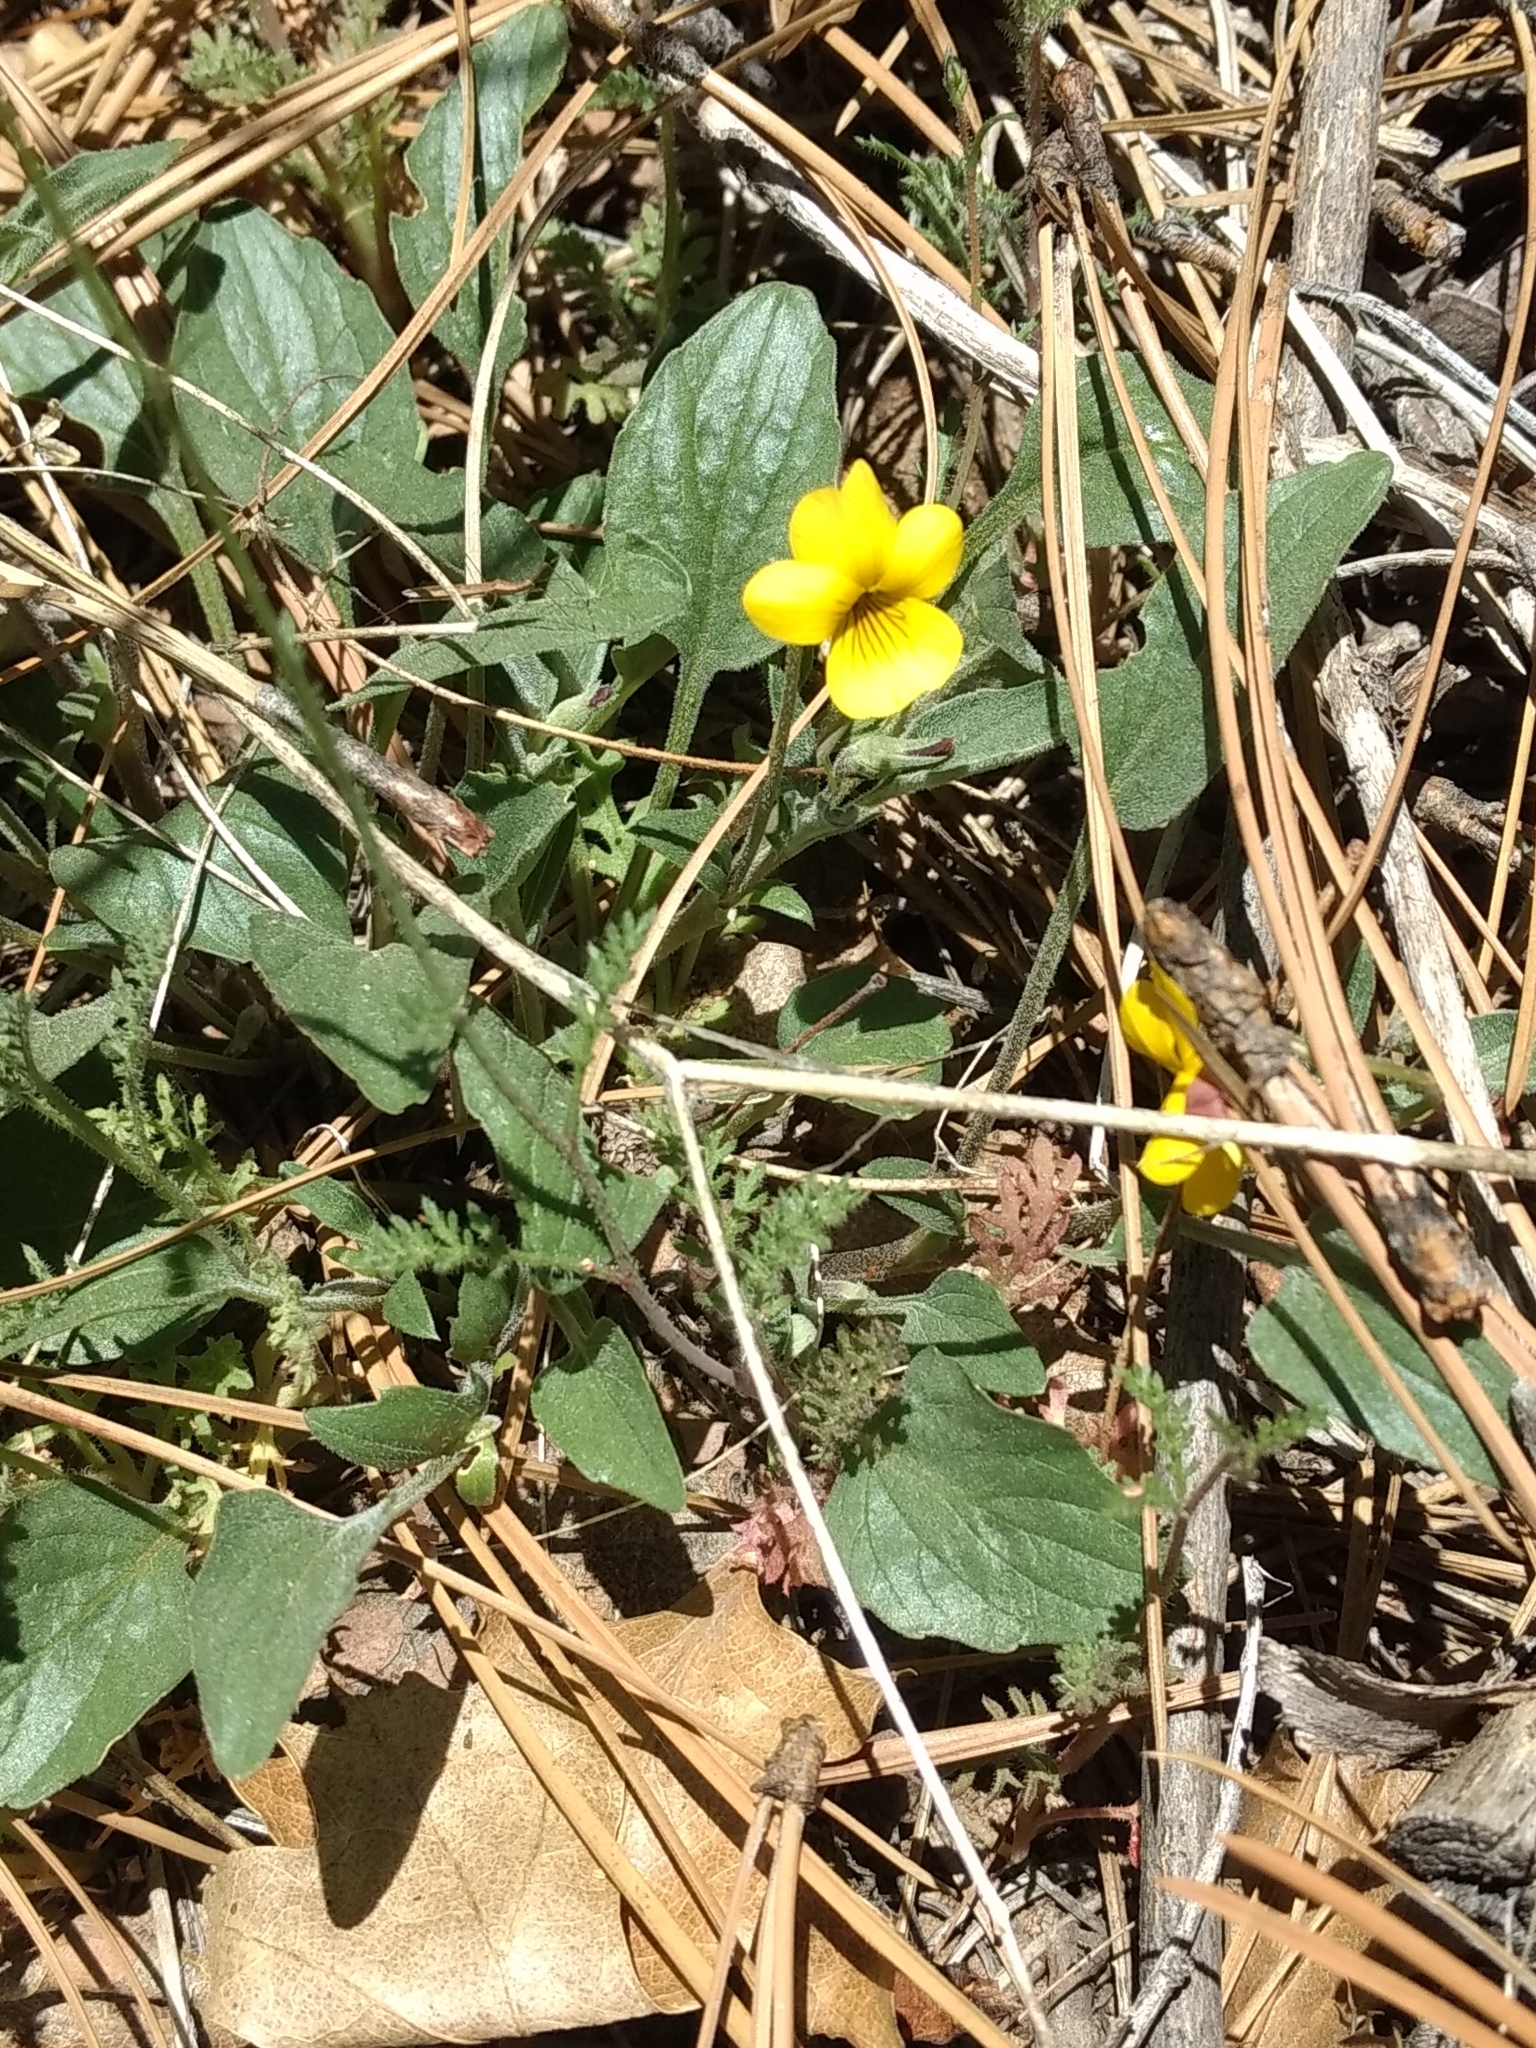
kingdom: Plantae
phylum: Tracheophyta
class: Magnoliopsida
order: Malpighiales
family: Violaceae
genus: Viola
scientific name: Viola purpurea
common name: Pine violet
